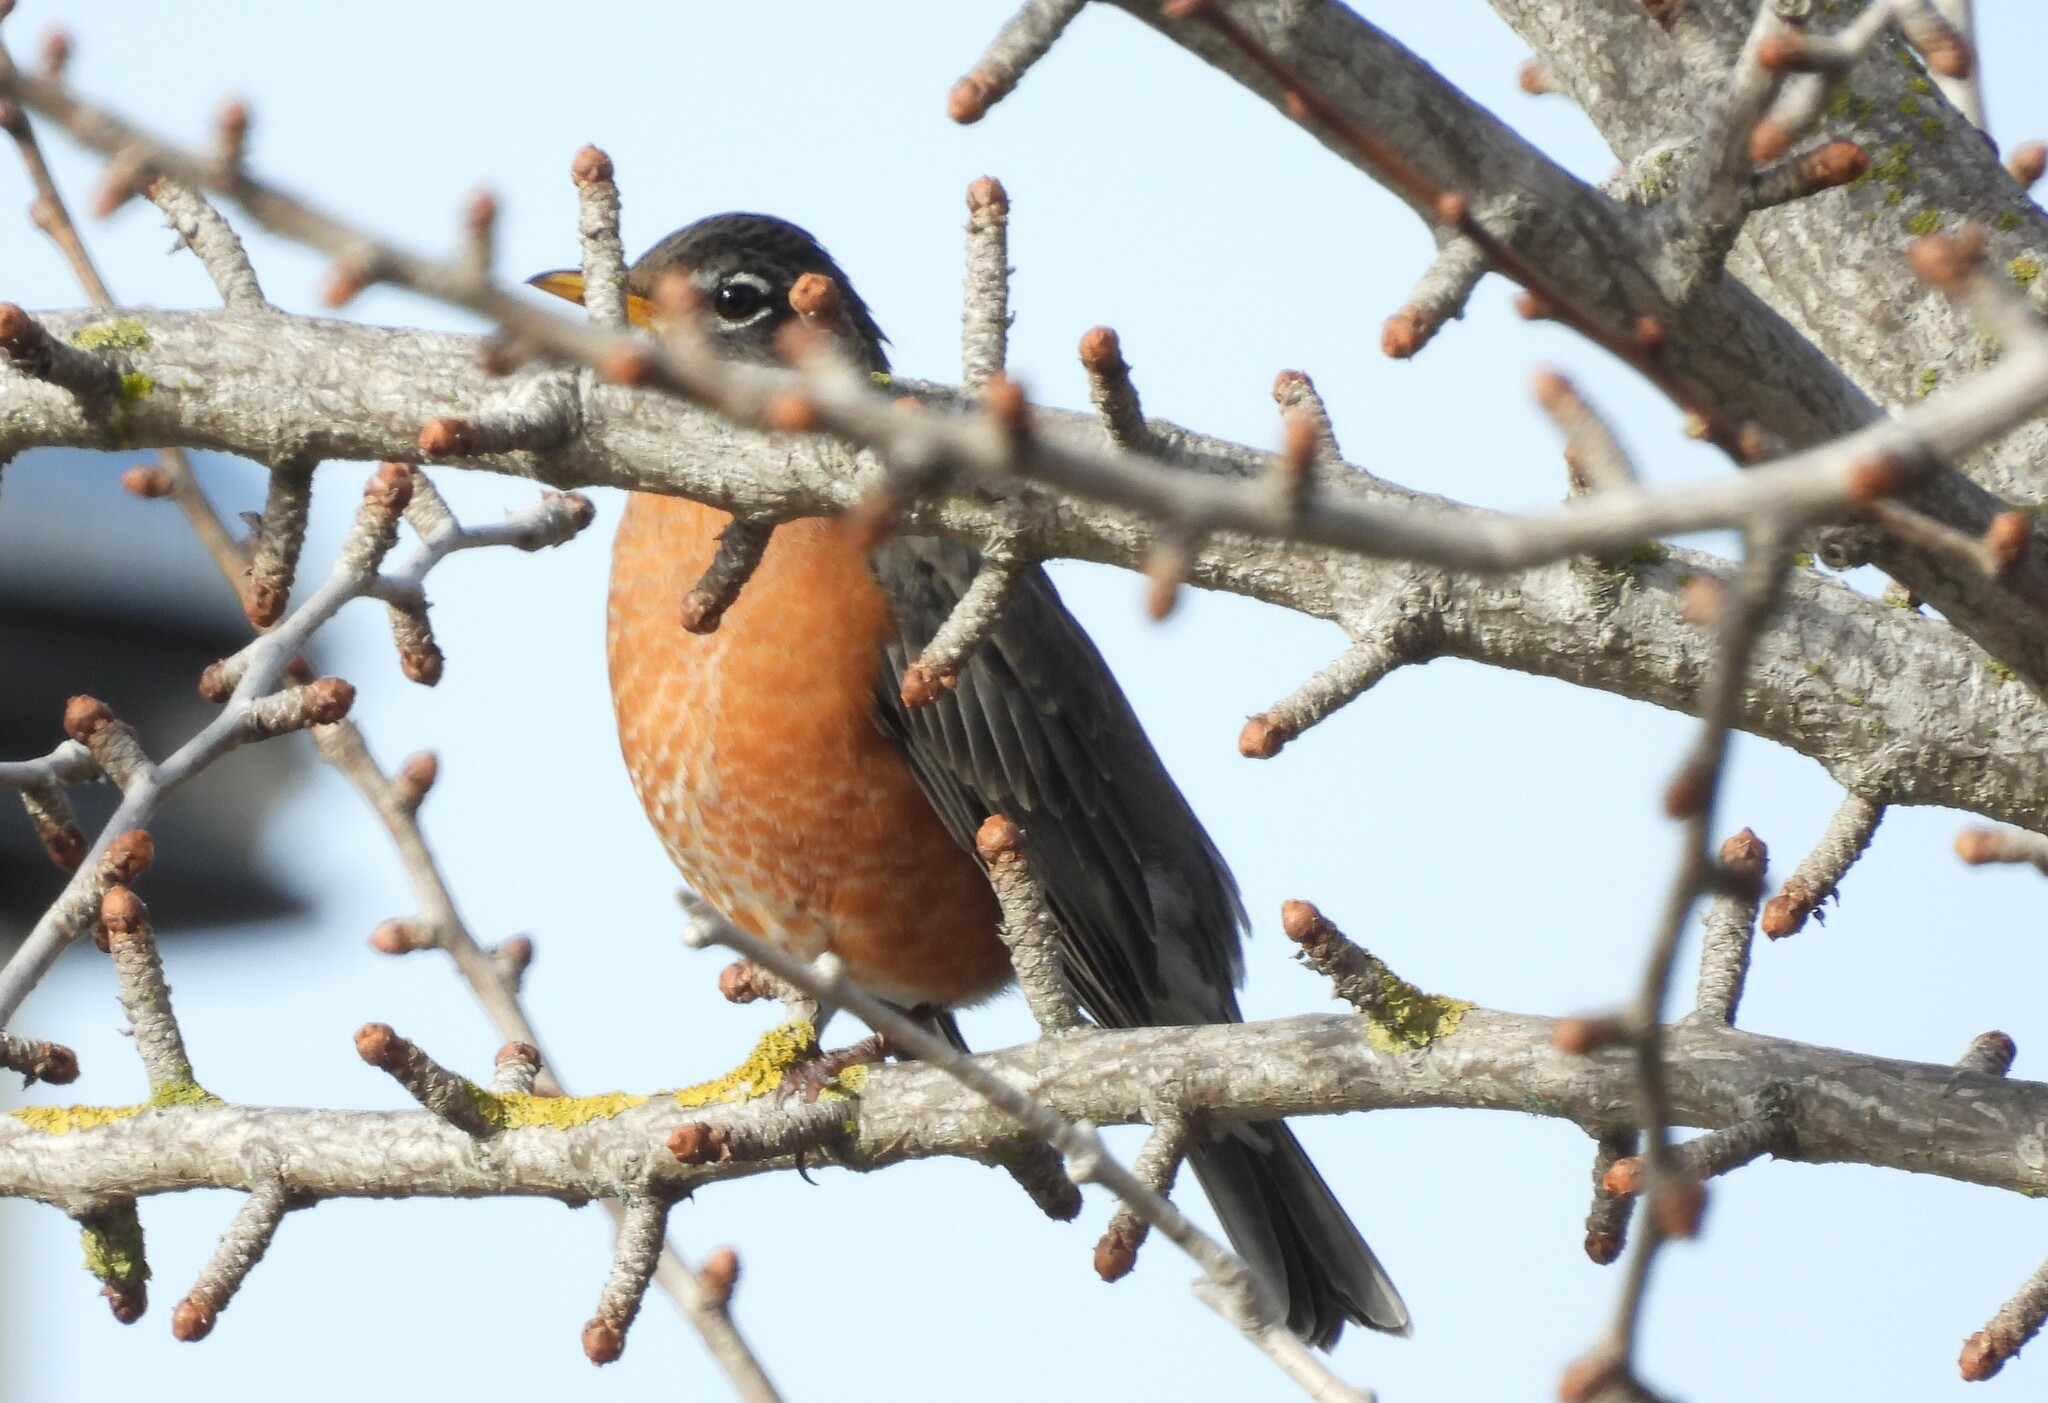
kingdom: Animalia
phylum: Chordata
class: Aves
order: Passeriformes
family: Turdidae
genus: Turdus
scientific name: Turdus migratorius
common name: American robin
